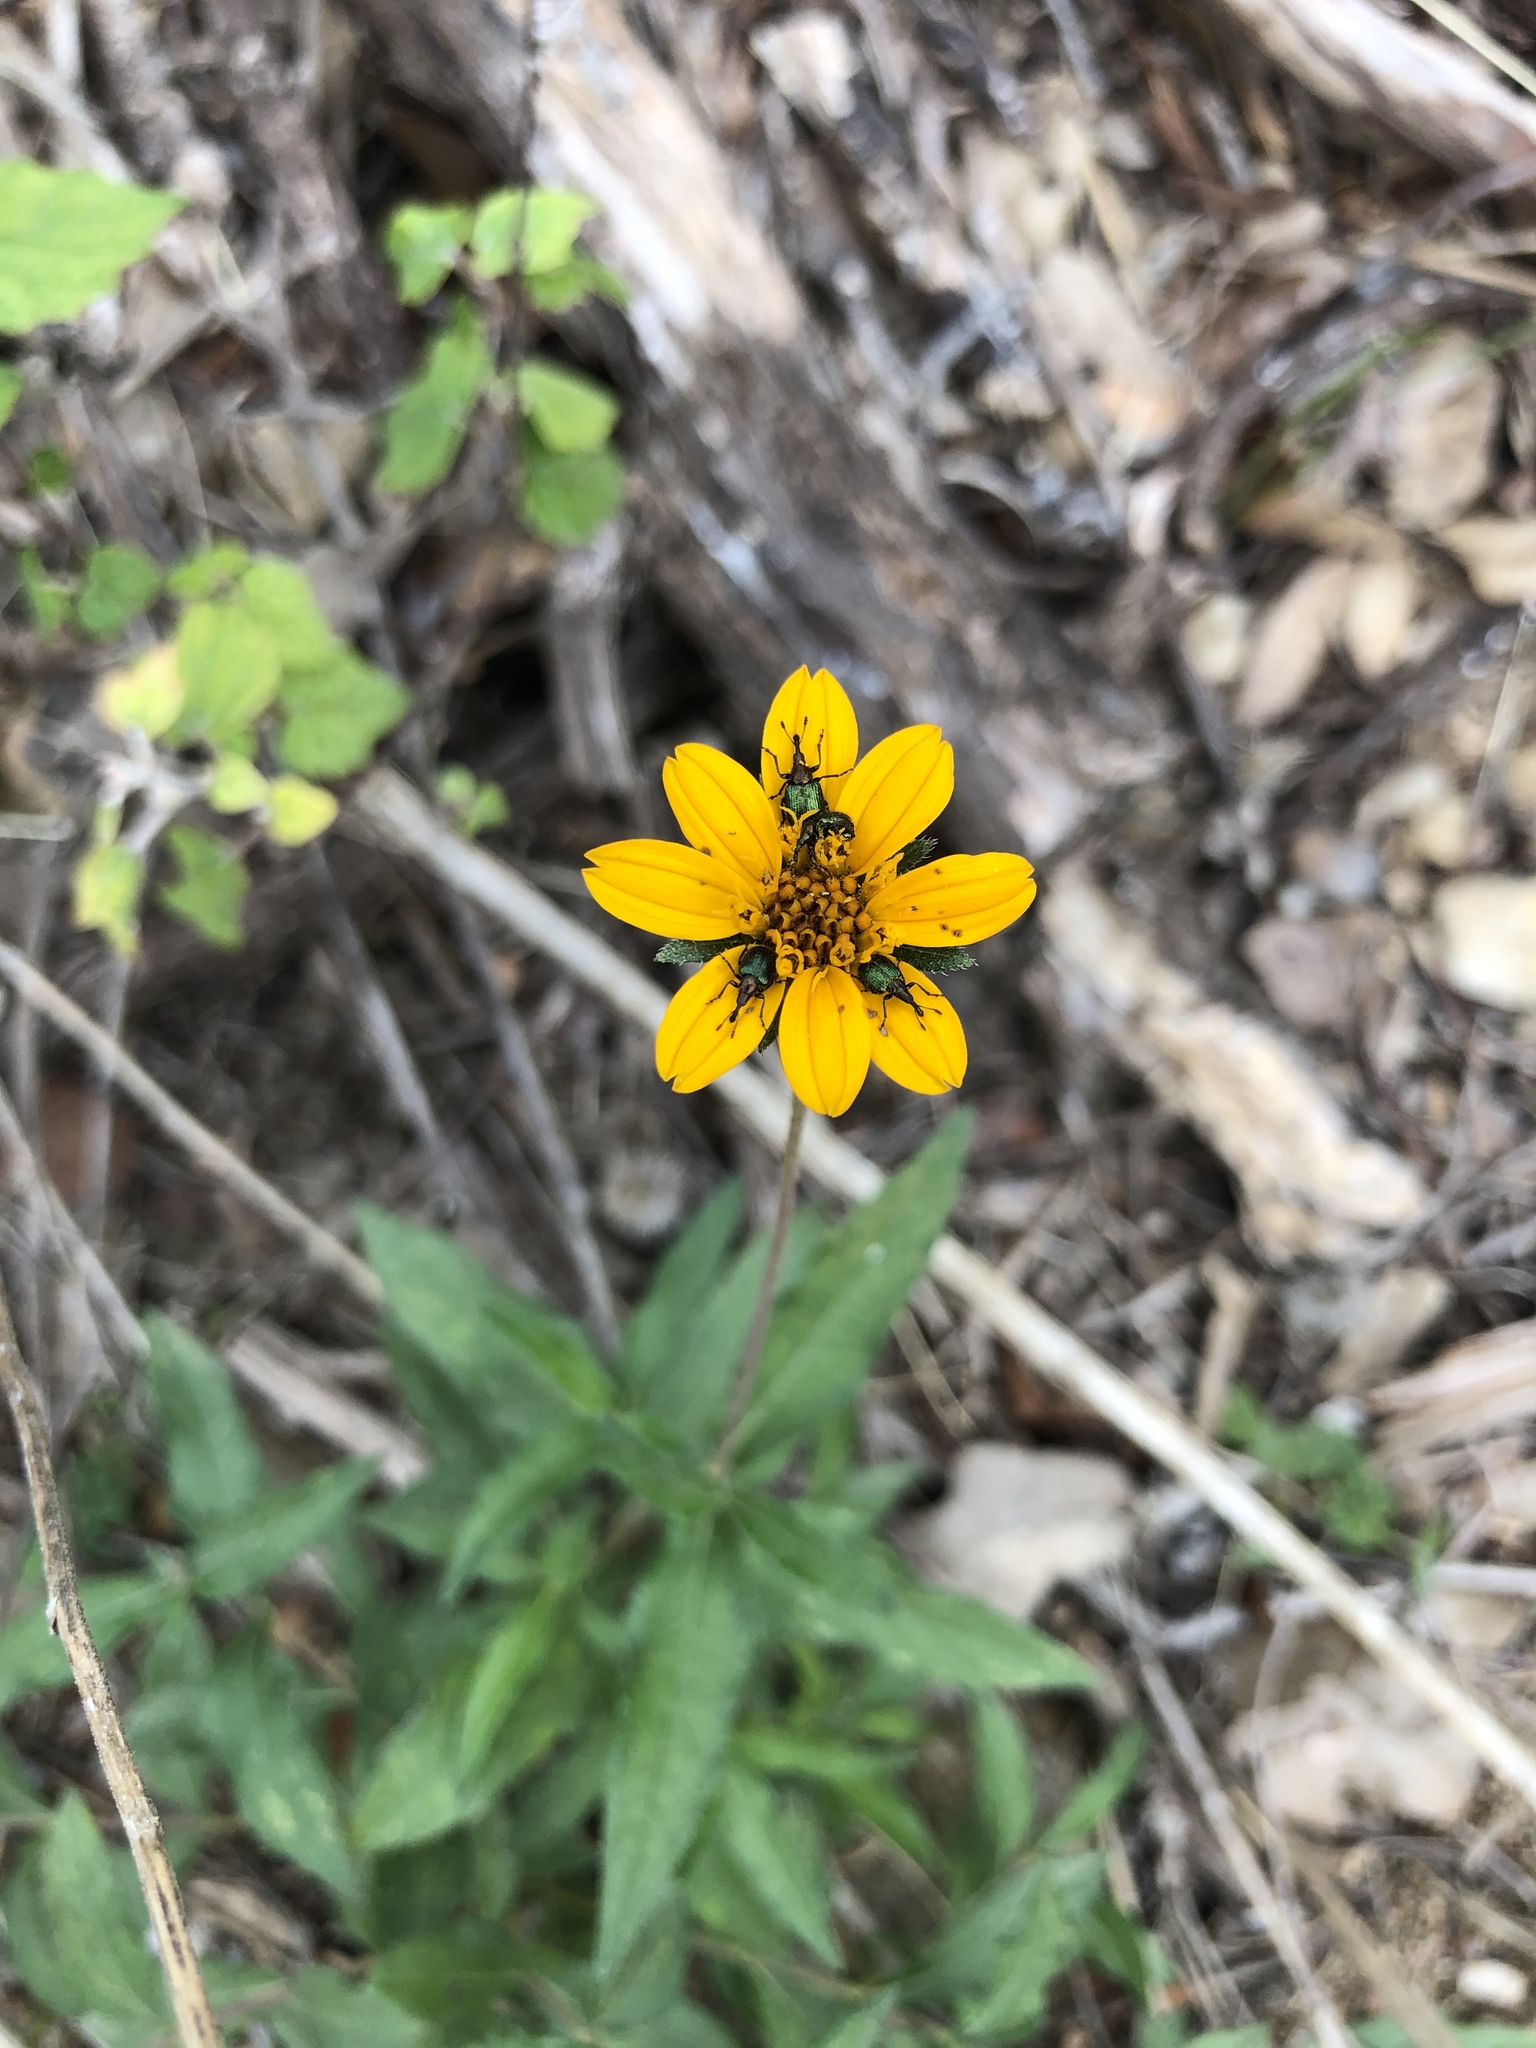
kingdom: Plantae
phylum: Tracheophyta
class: Magnoliopsida
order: Asterales
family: Asteraceae
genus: Wedelia
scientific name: Wedelia acapulcensis
